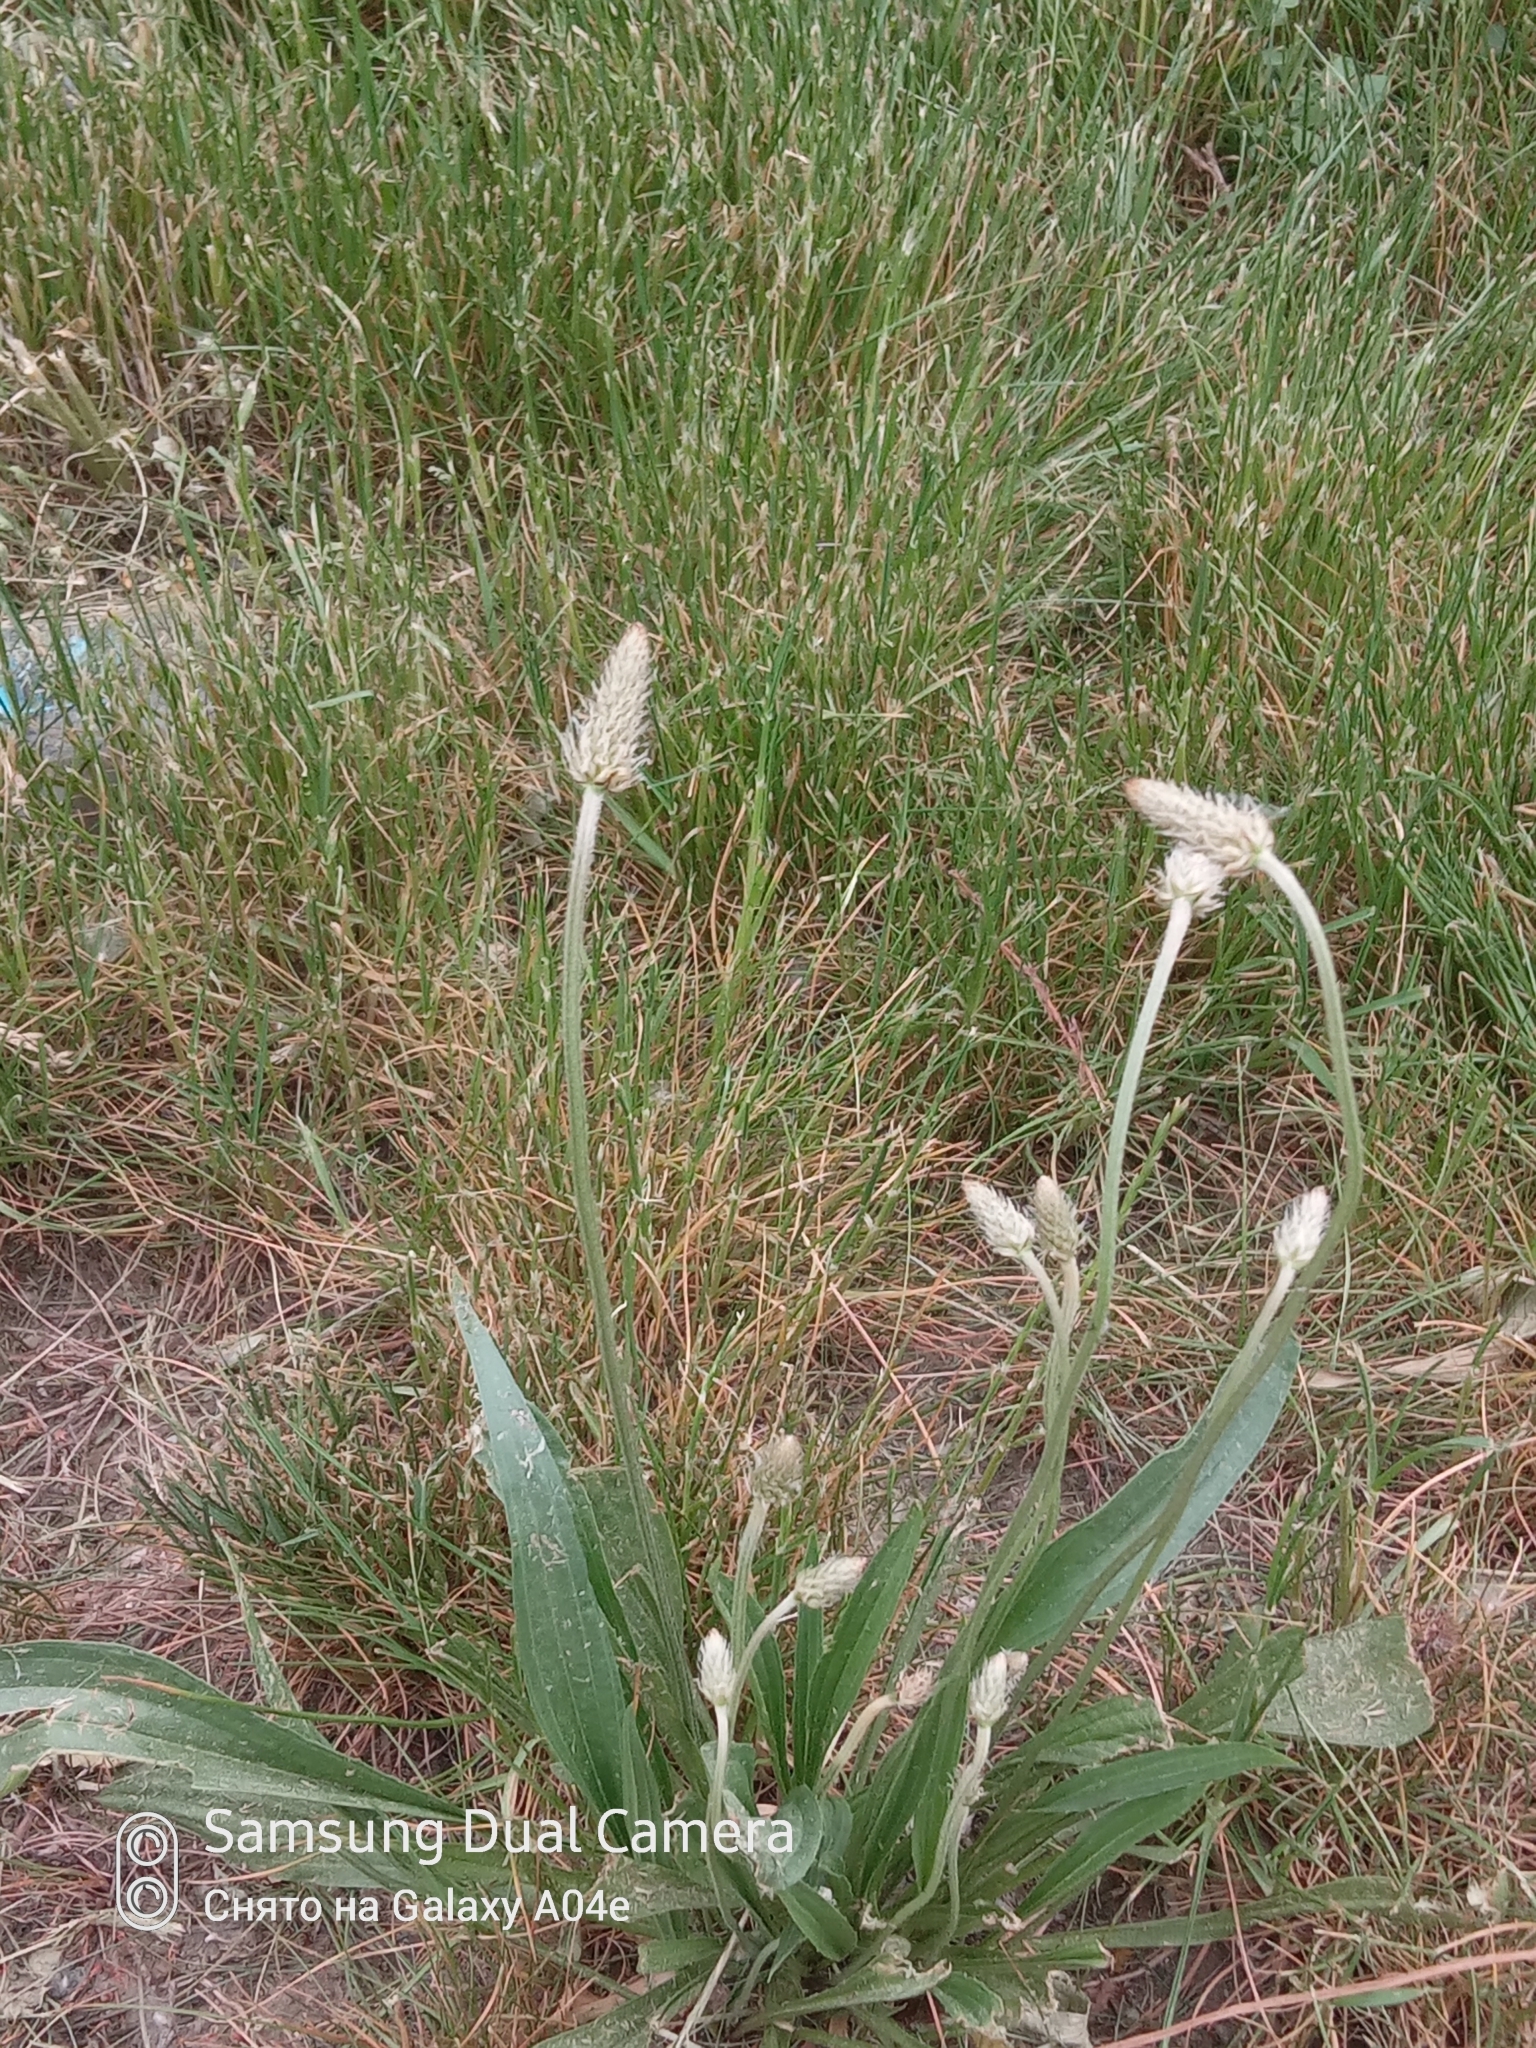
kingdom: Plantae
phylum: Tracheophyta
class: Magnoliopsida
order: Lamiales
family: Plantaginaceae
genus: Plantago
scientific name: Plantago lanceolata
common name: Ribwort plantain
